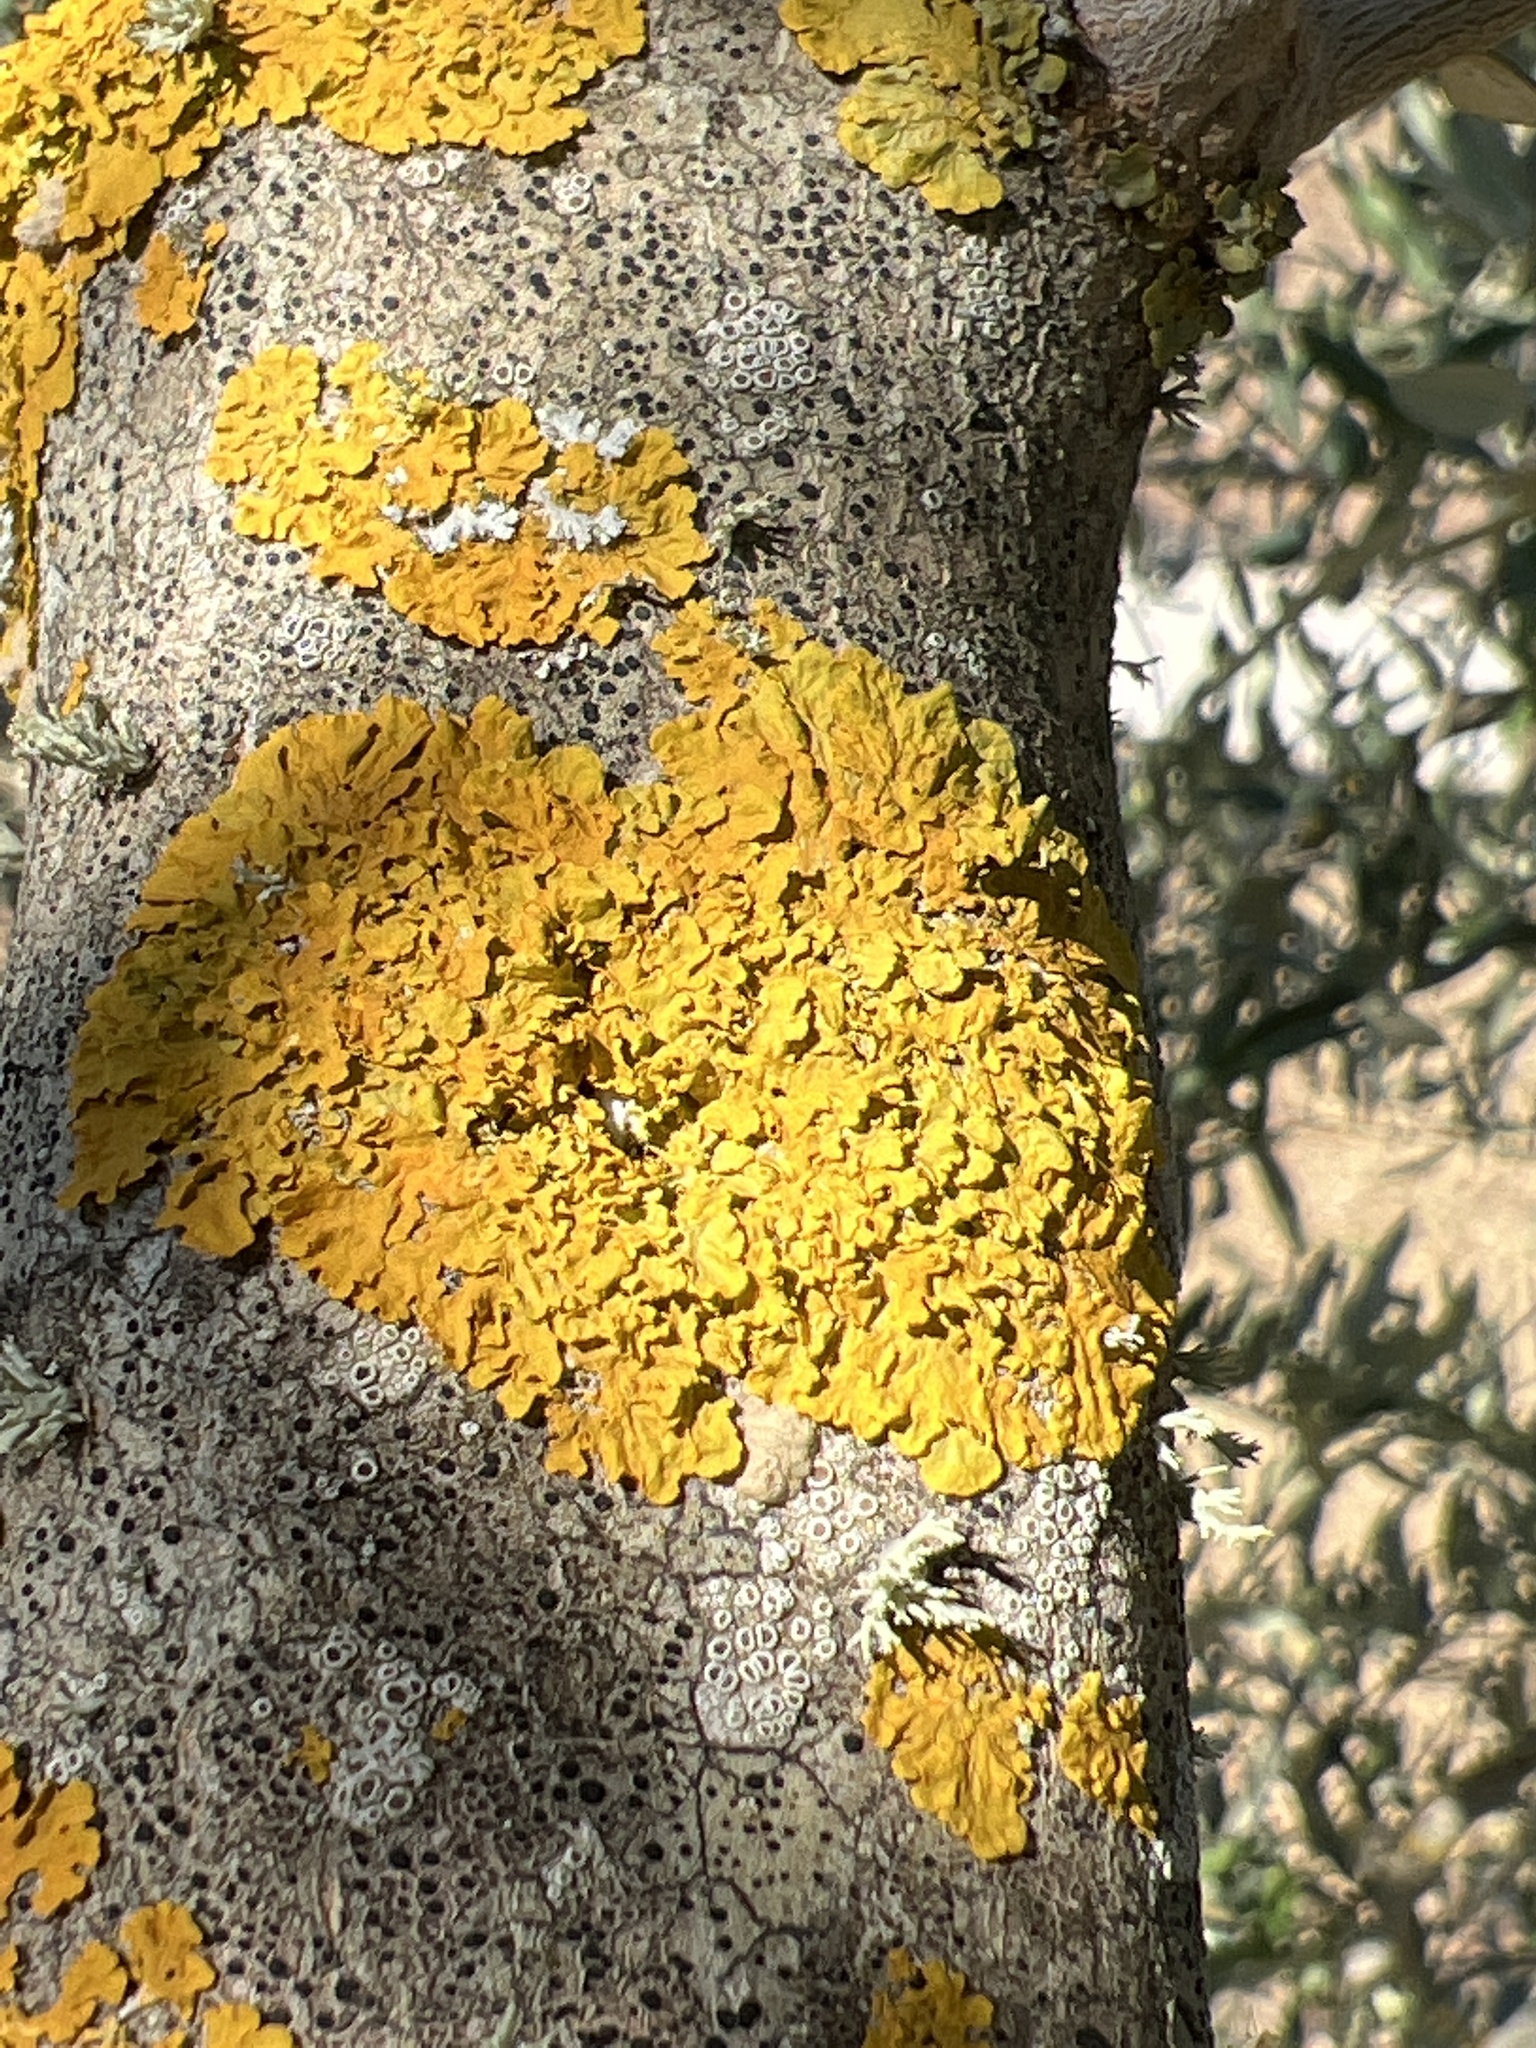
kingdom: Fungi
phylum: Ascomycota
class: Lecanoromycetes
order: Teloschistales
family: Teloschistaceae
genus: Xanthoria
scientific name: Xanthoria parietina
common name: Common orange lichen
